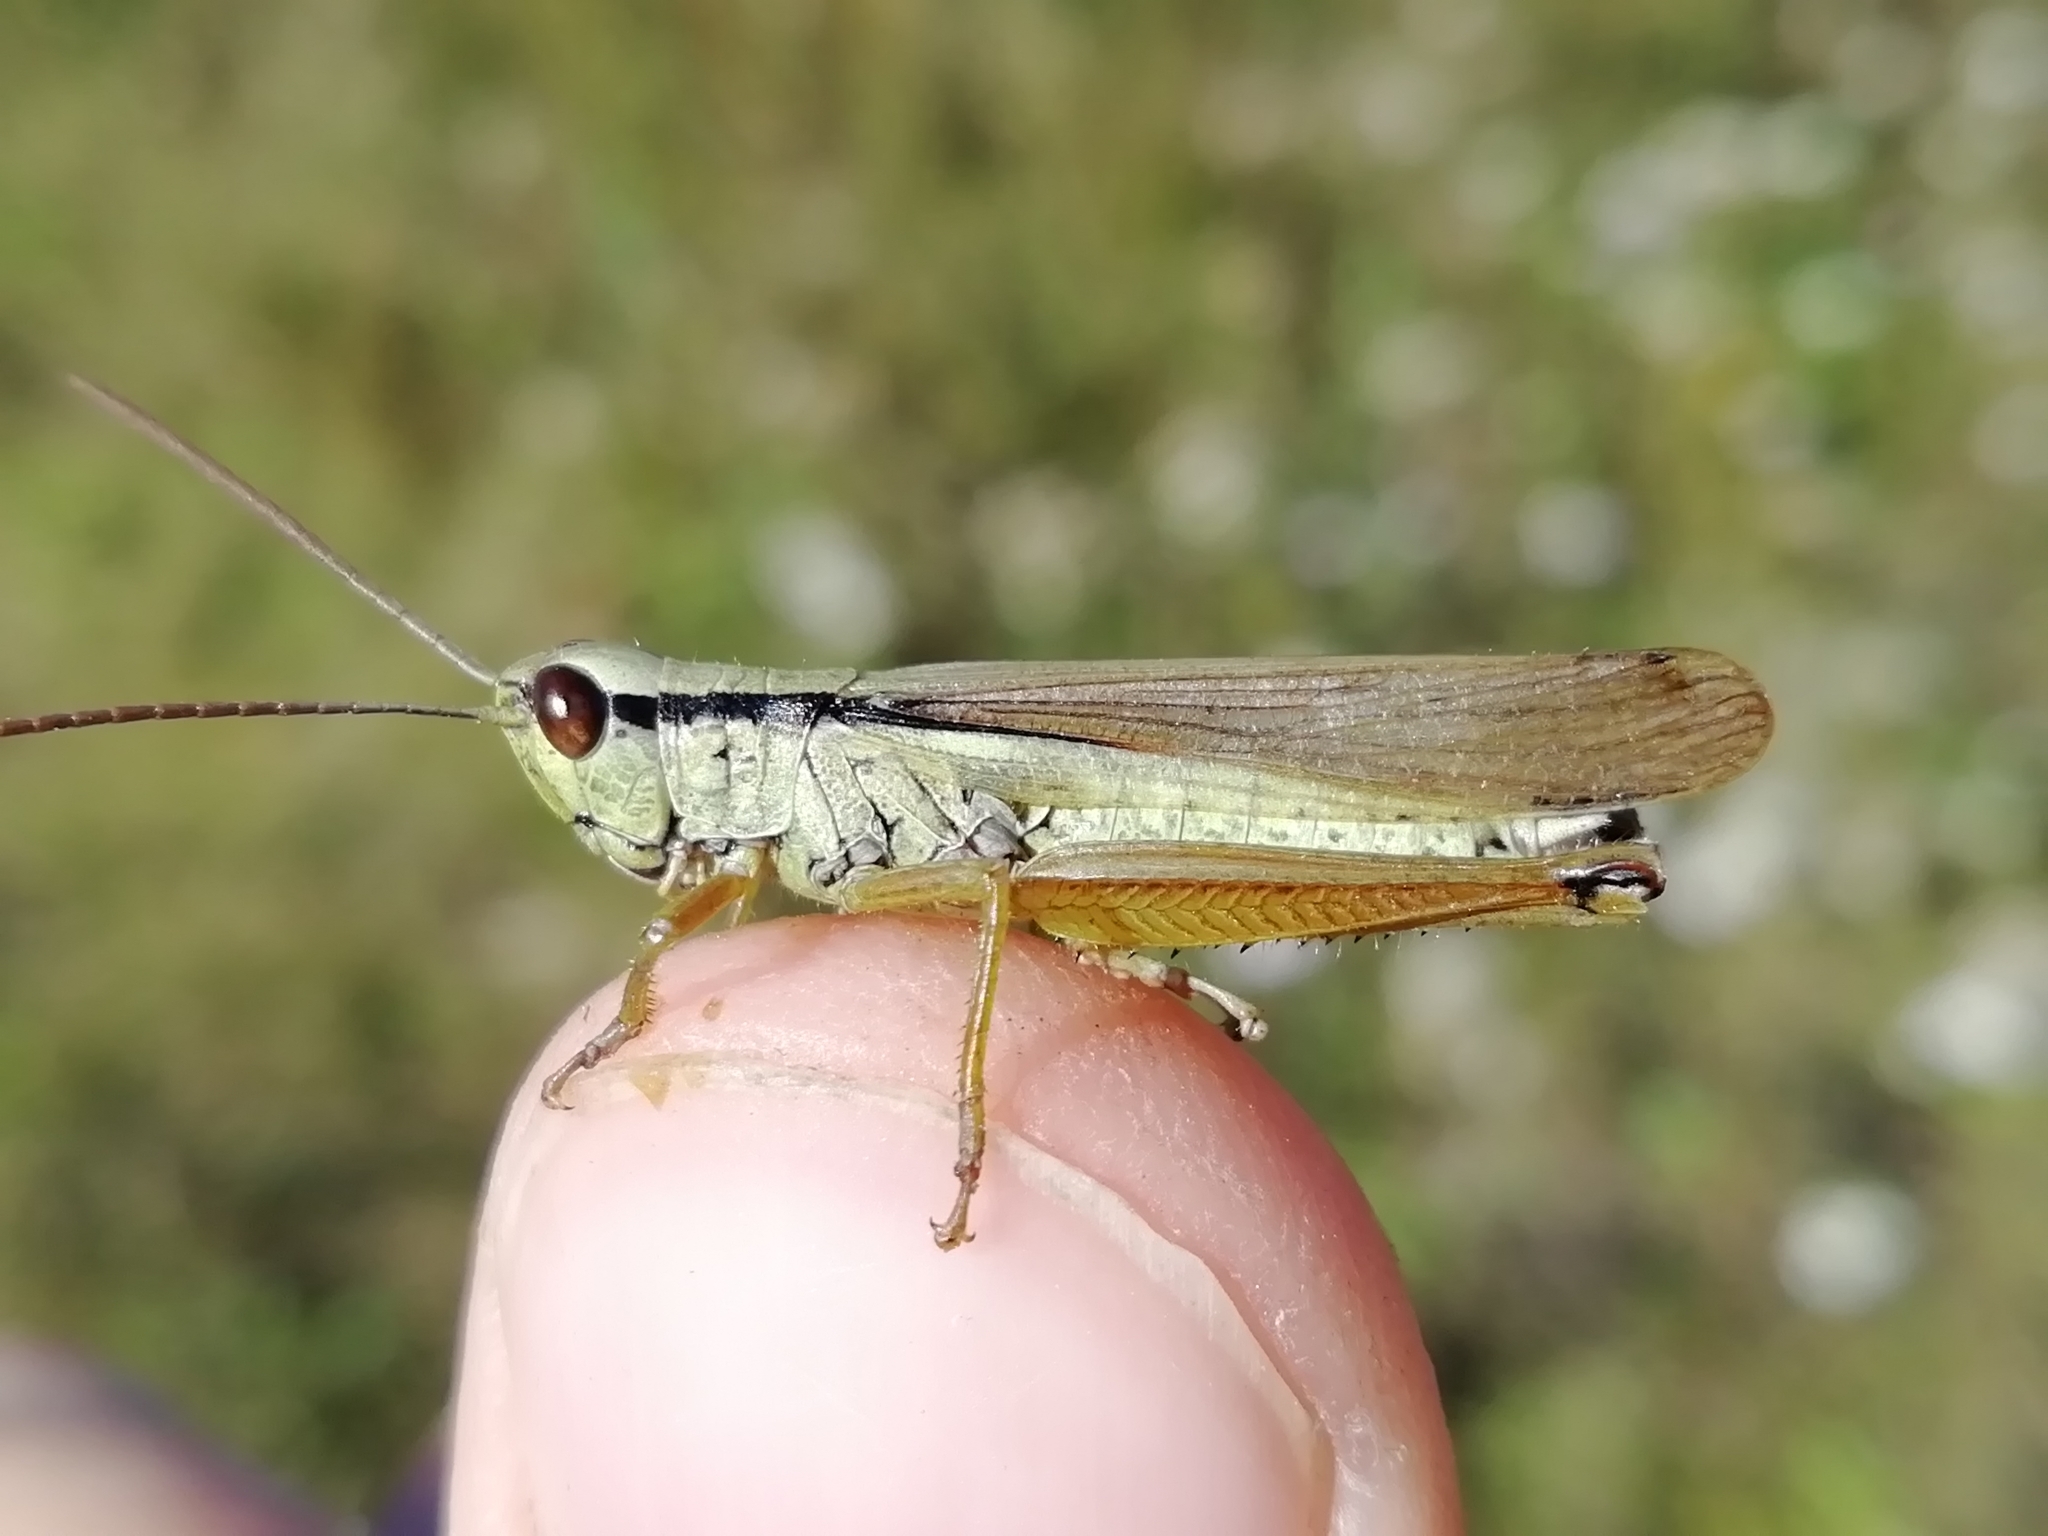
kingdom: Animalia
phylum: Arthropoda
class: Insecta
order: Orthoptera
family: Acrididae
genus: Mecostethus
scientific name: Mecostethus parapleurus
